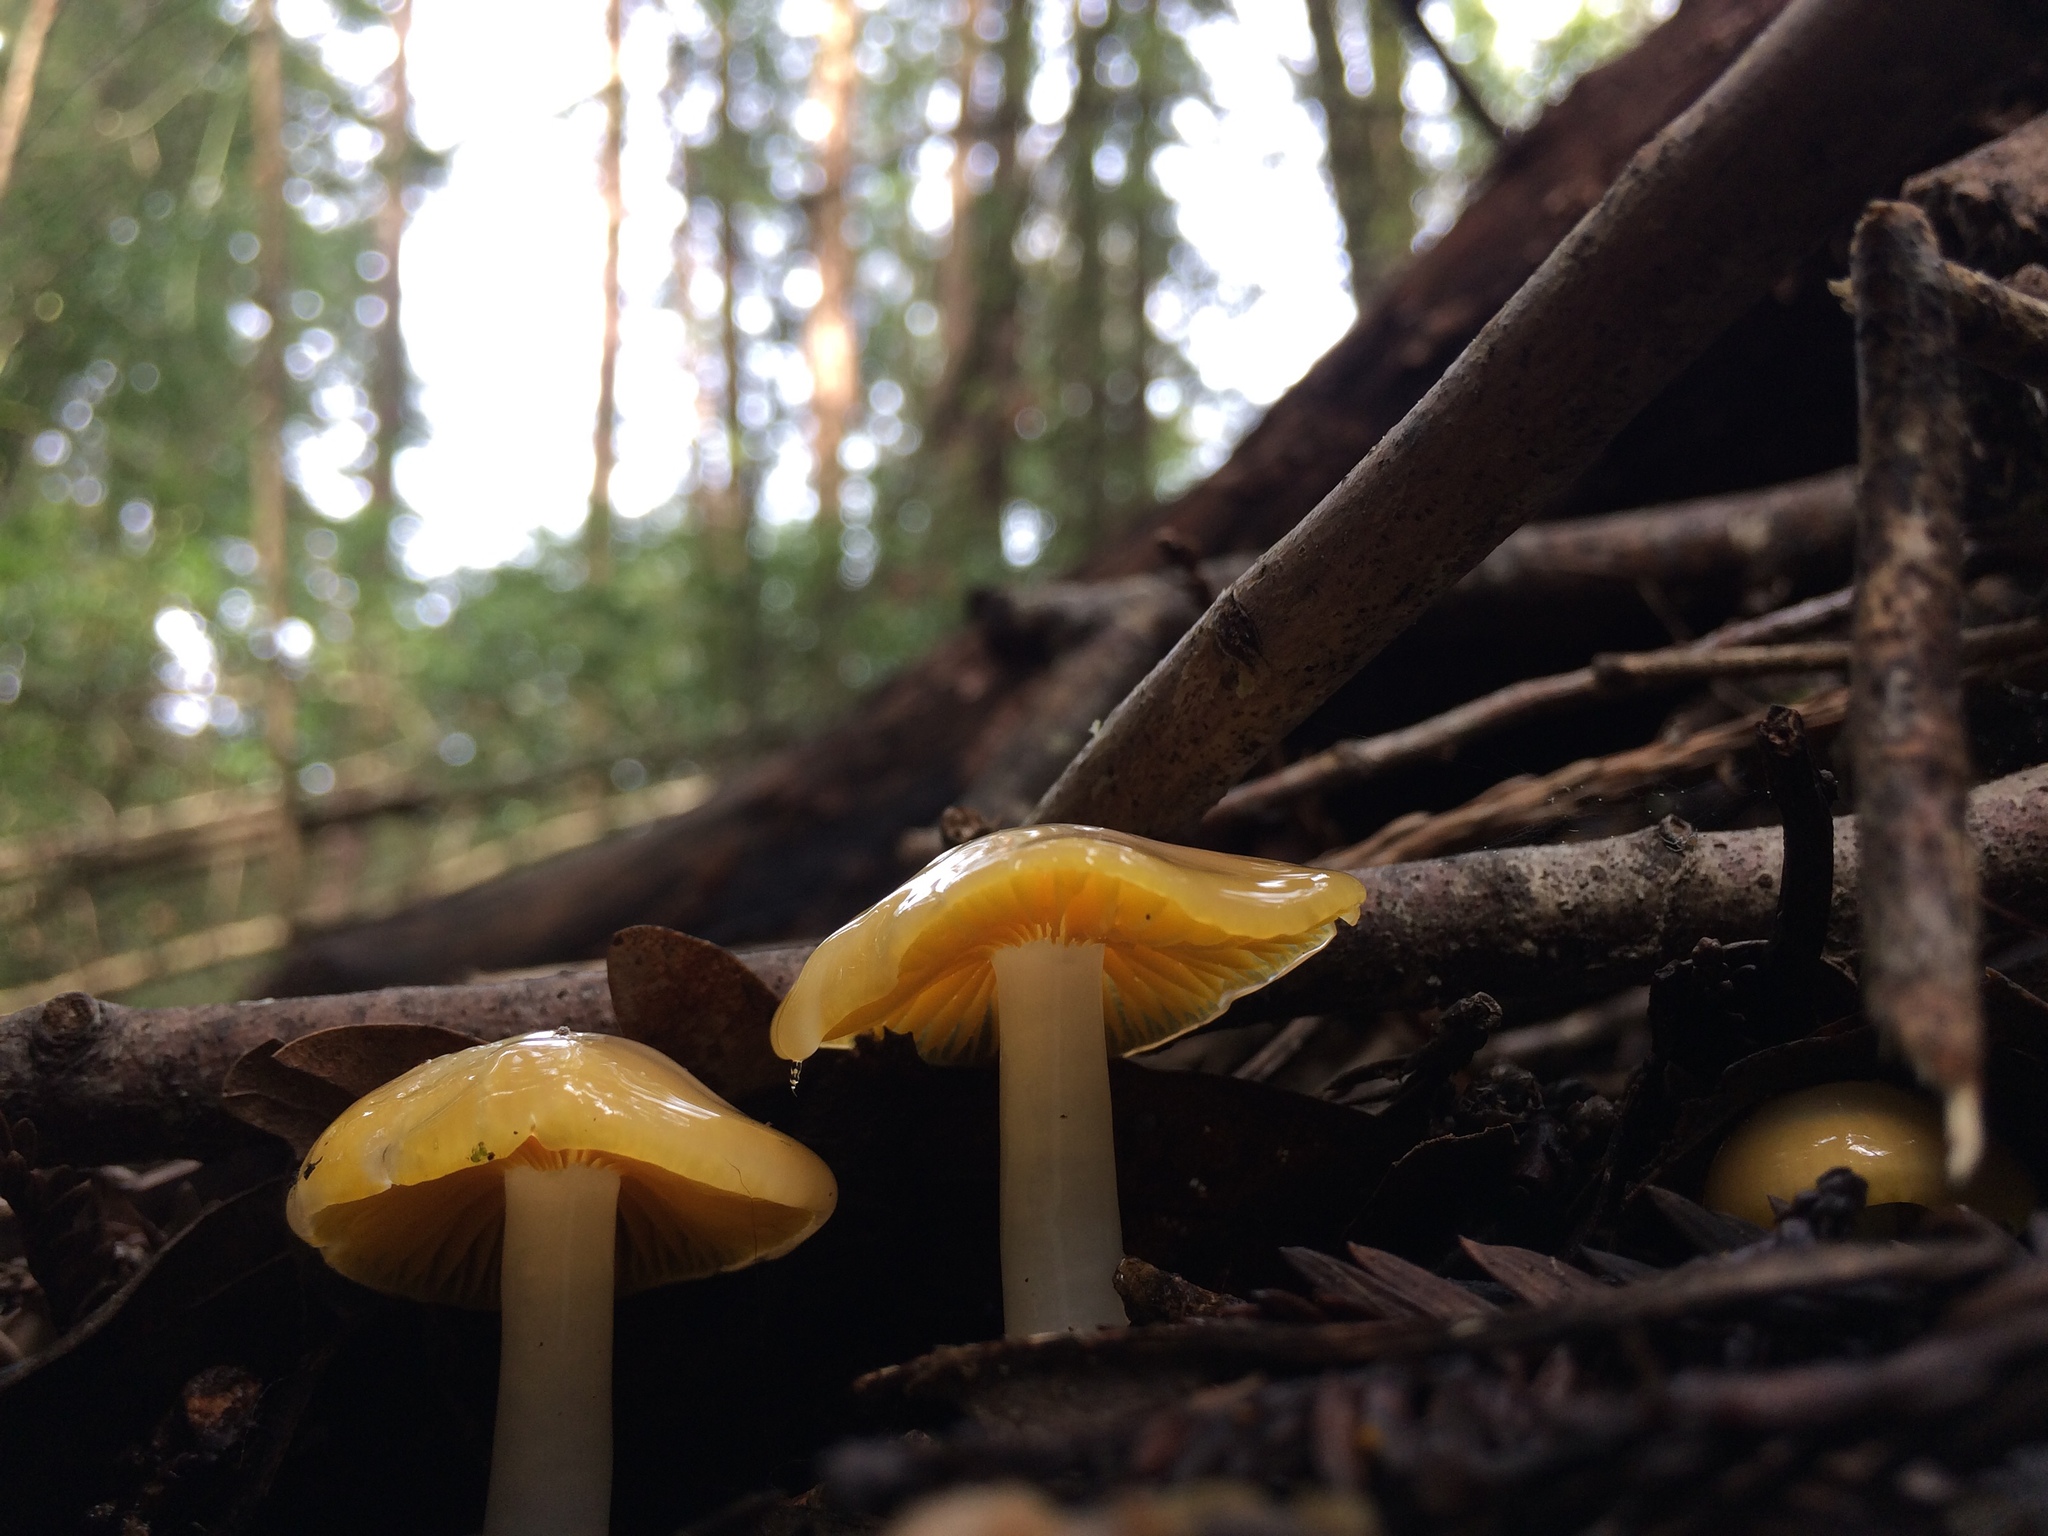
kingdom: Fungi
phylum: Basidiomycota
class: Agaricomycetes
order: Agaricales
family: Hygrophoraceae
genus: Hygrocybe
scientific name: Hygrocybe flavifolia
